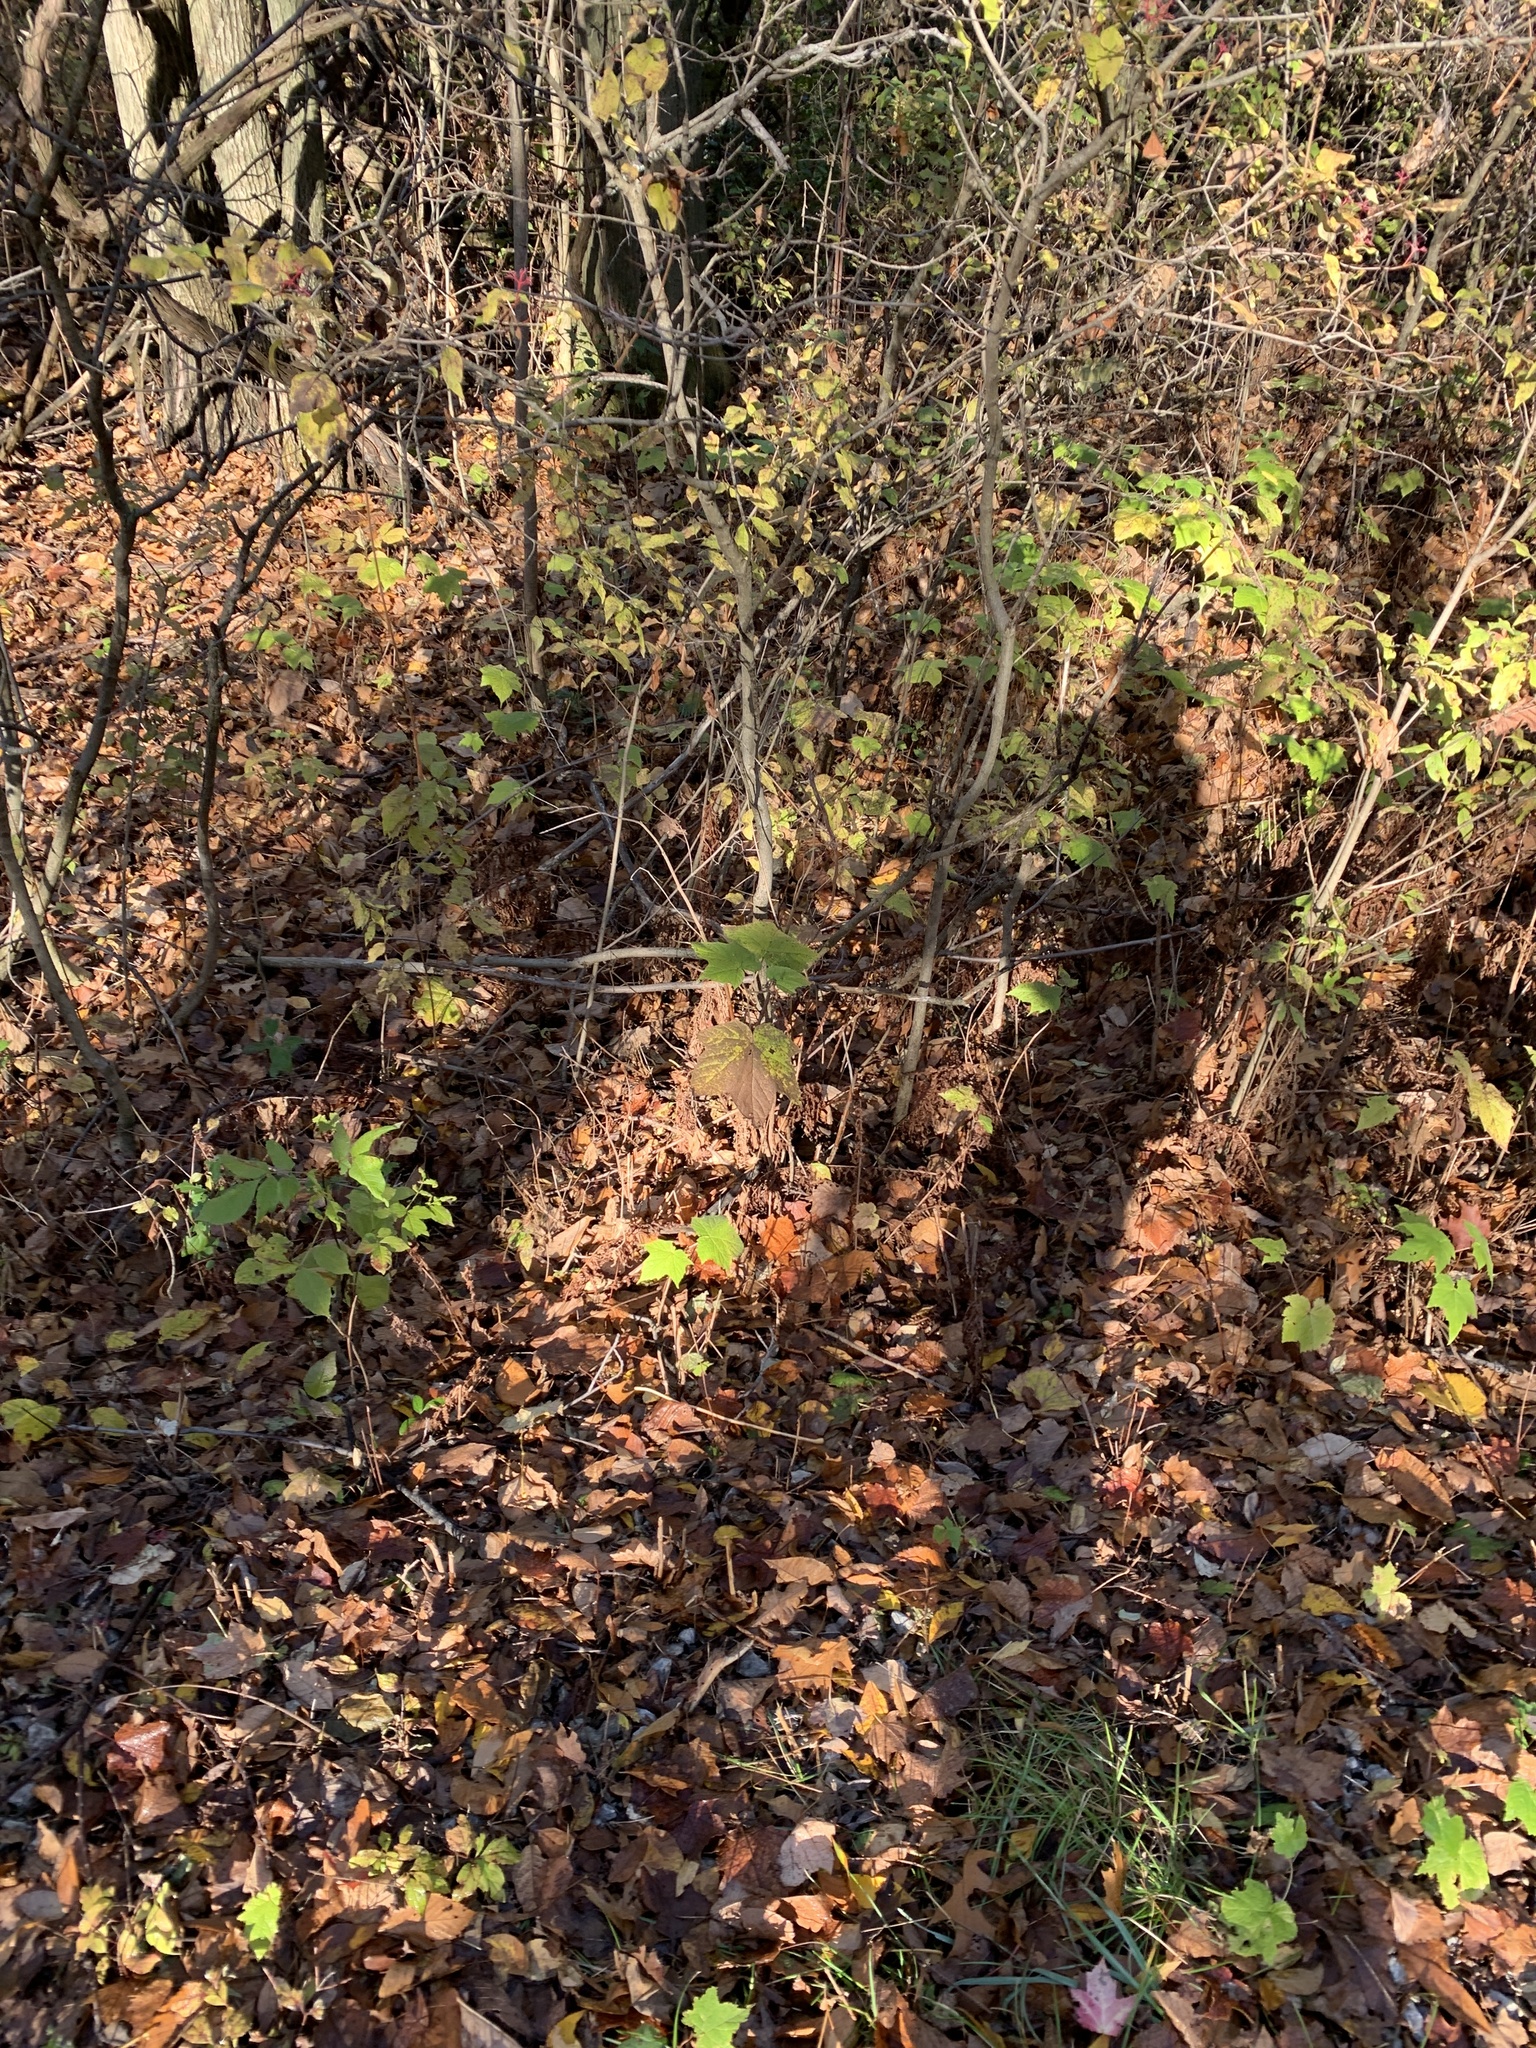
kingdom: Plantae
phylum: Tracheophyta
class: Magnoliopsida
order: Rosales
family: Rosaceae
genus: Rubus
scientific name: Rubus odoratus
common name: Purple-flowered raspberry
